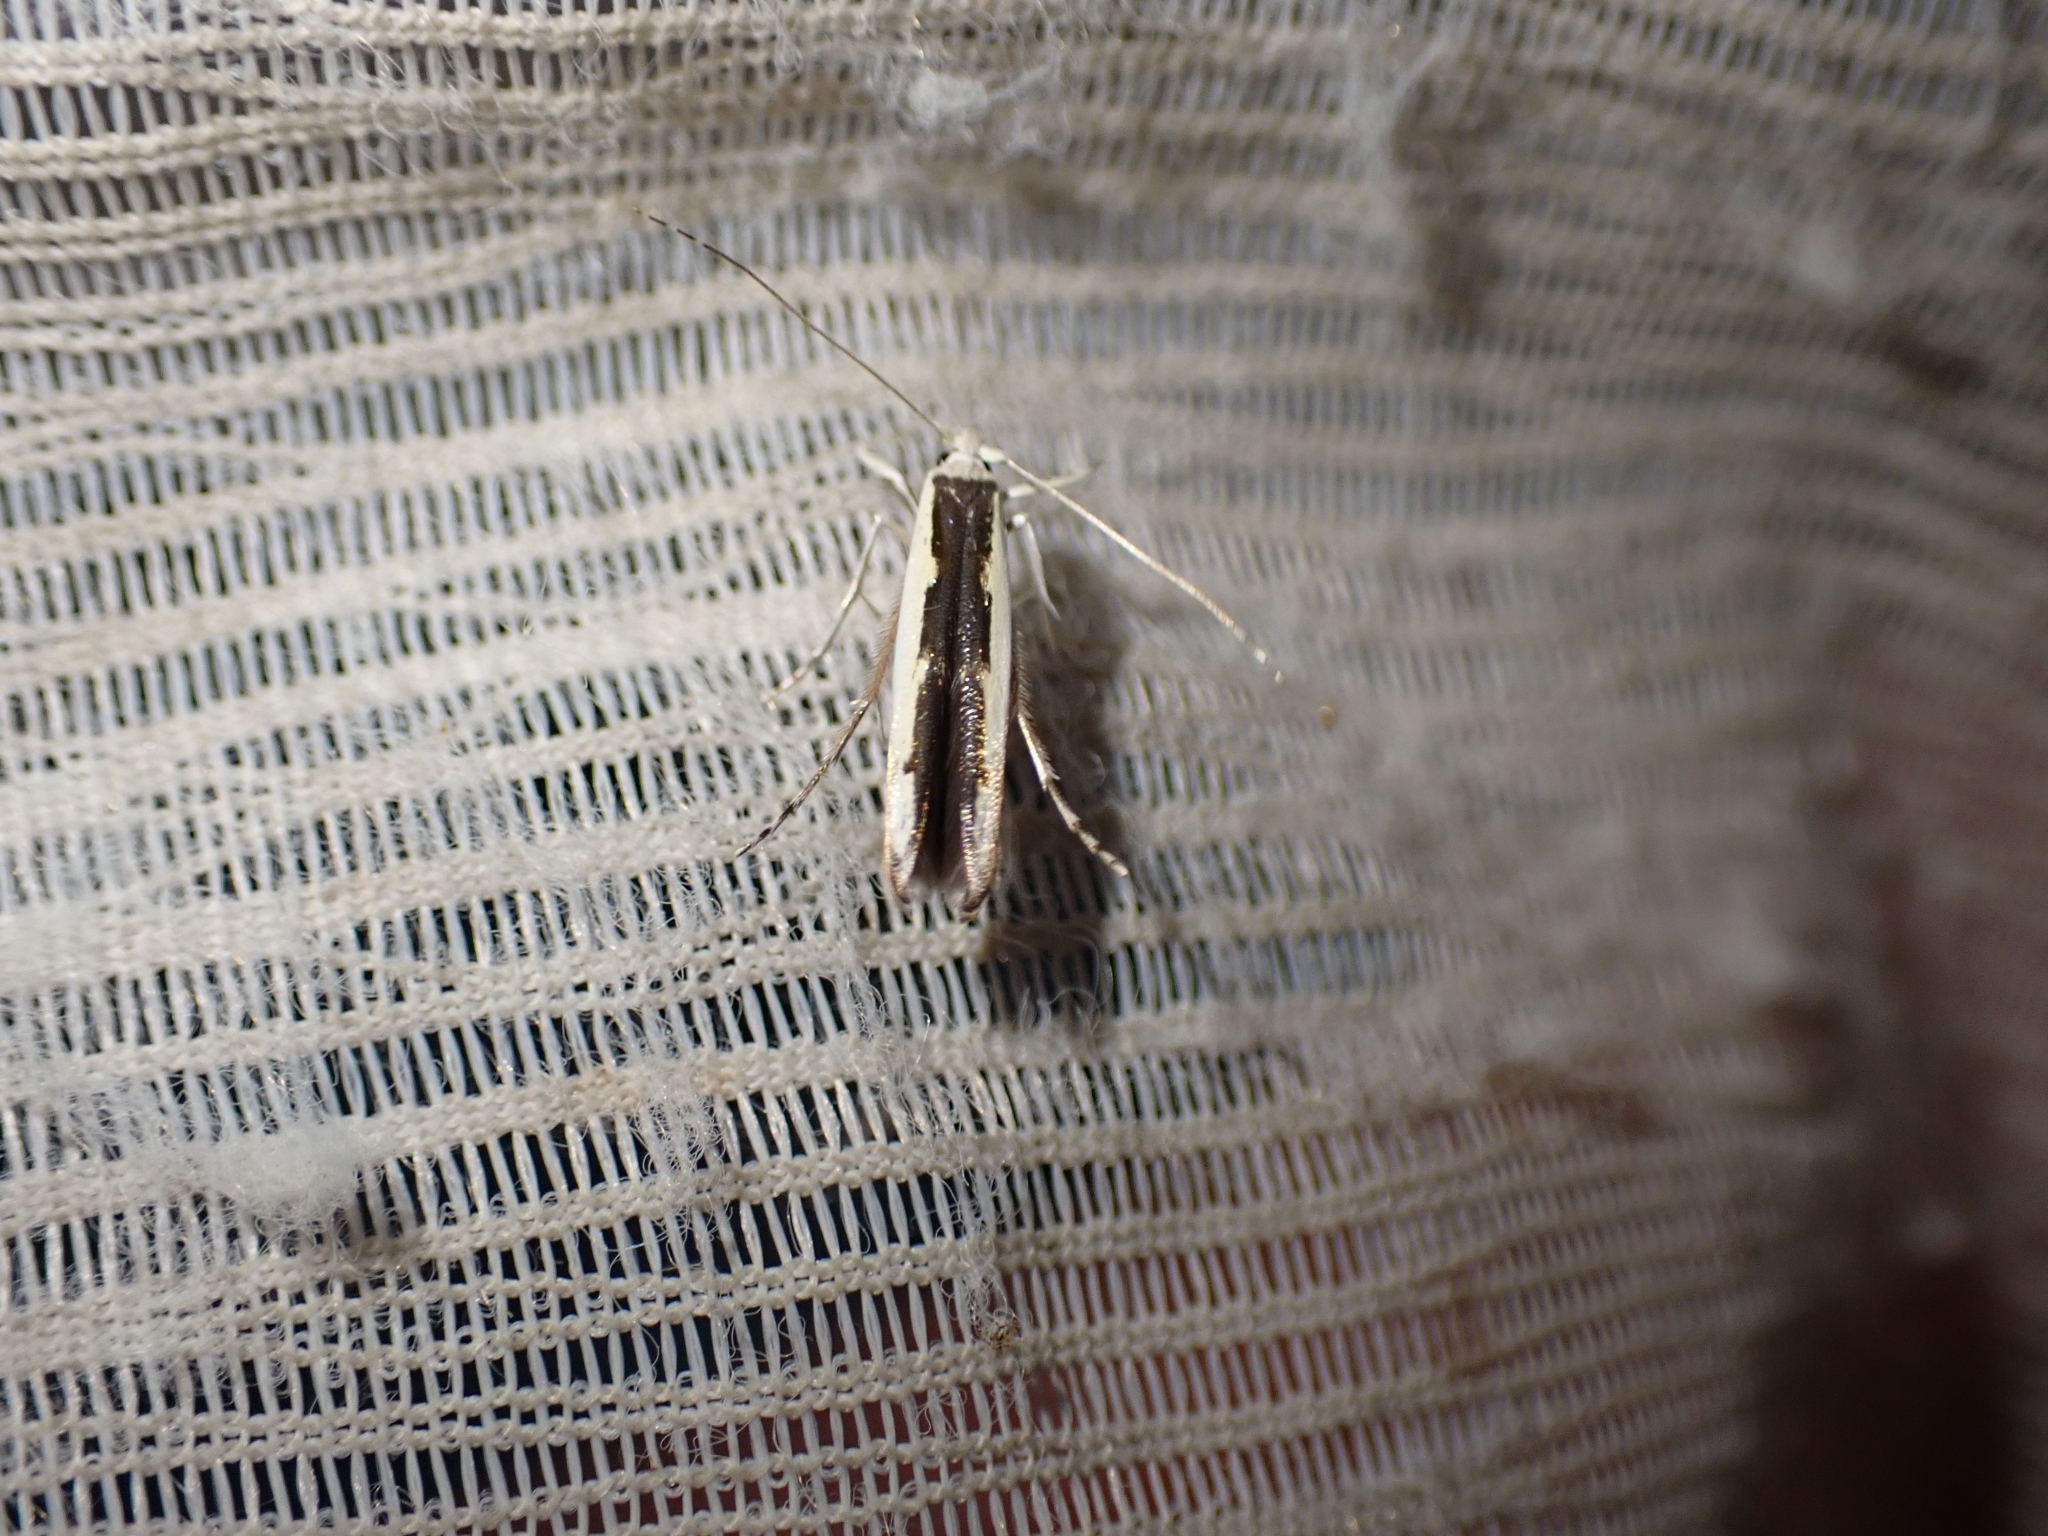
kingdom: Animalia
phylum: Arthropoda
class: Insecta
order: Lepidoptera
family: Roeslerstammiidae
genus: Vanicela
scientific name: Vanicela disjunctella
